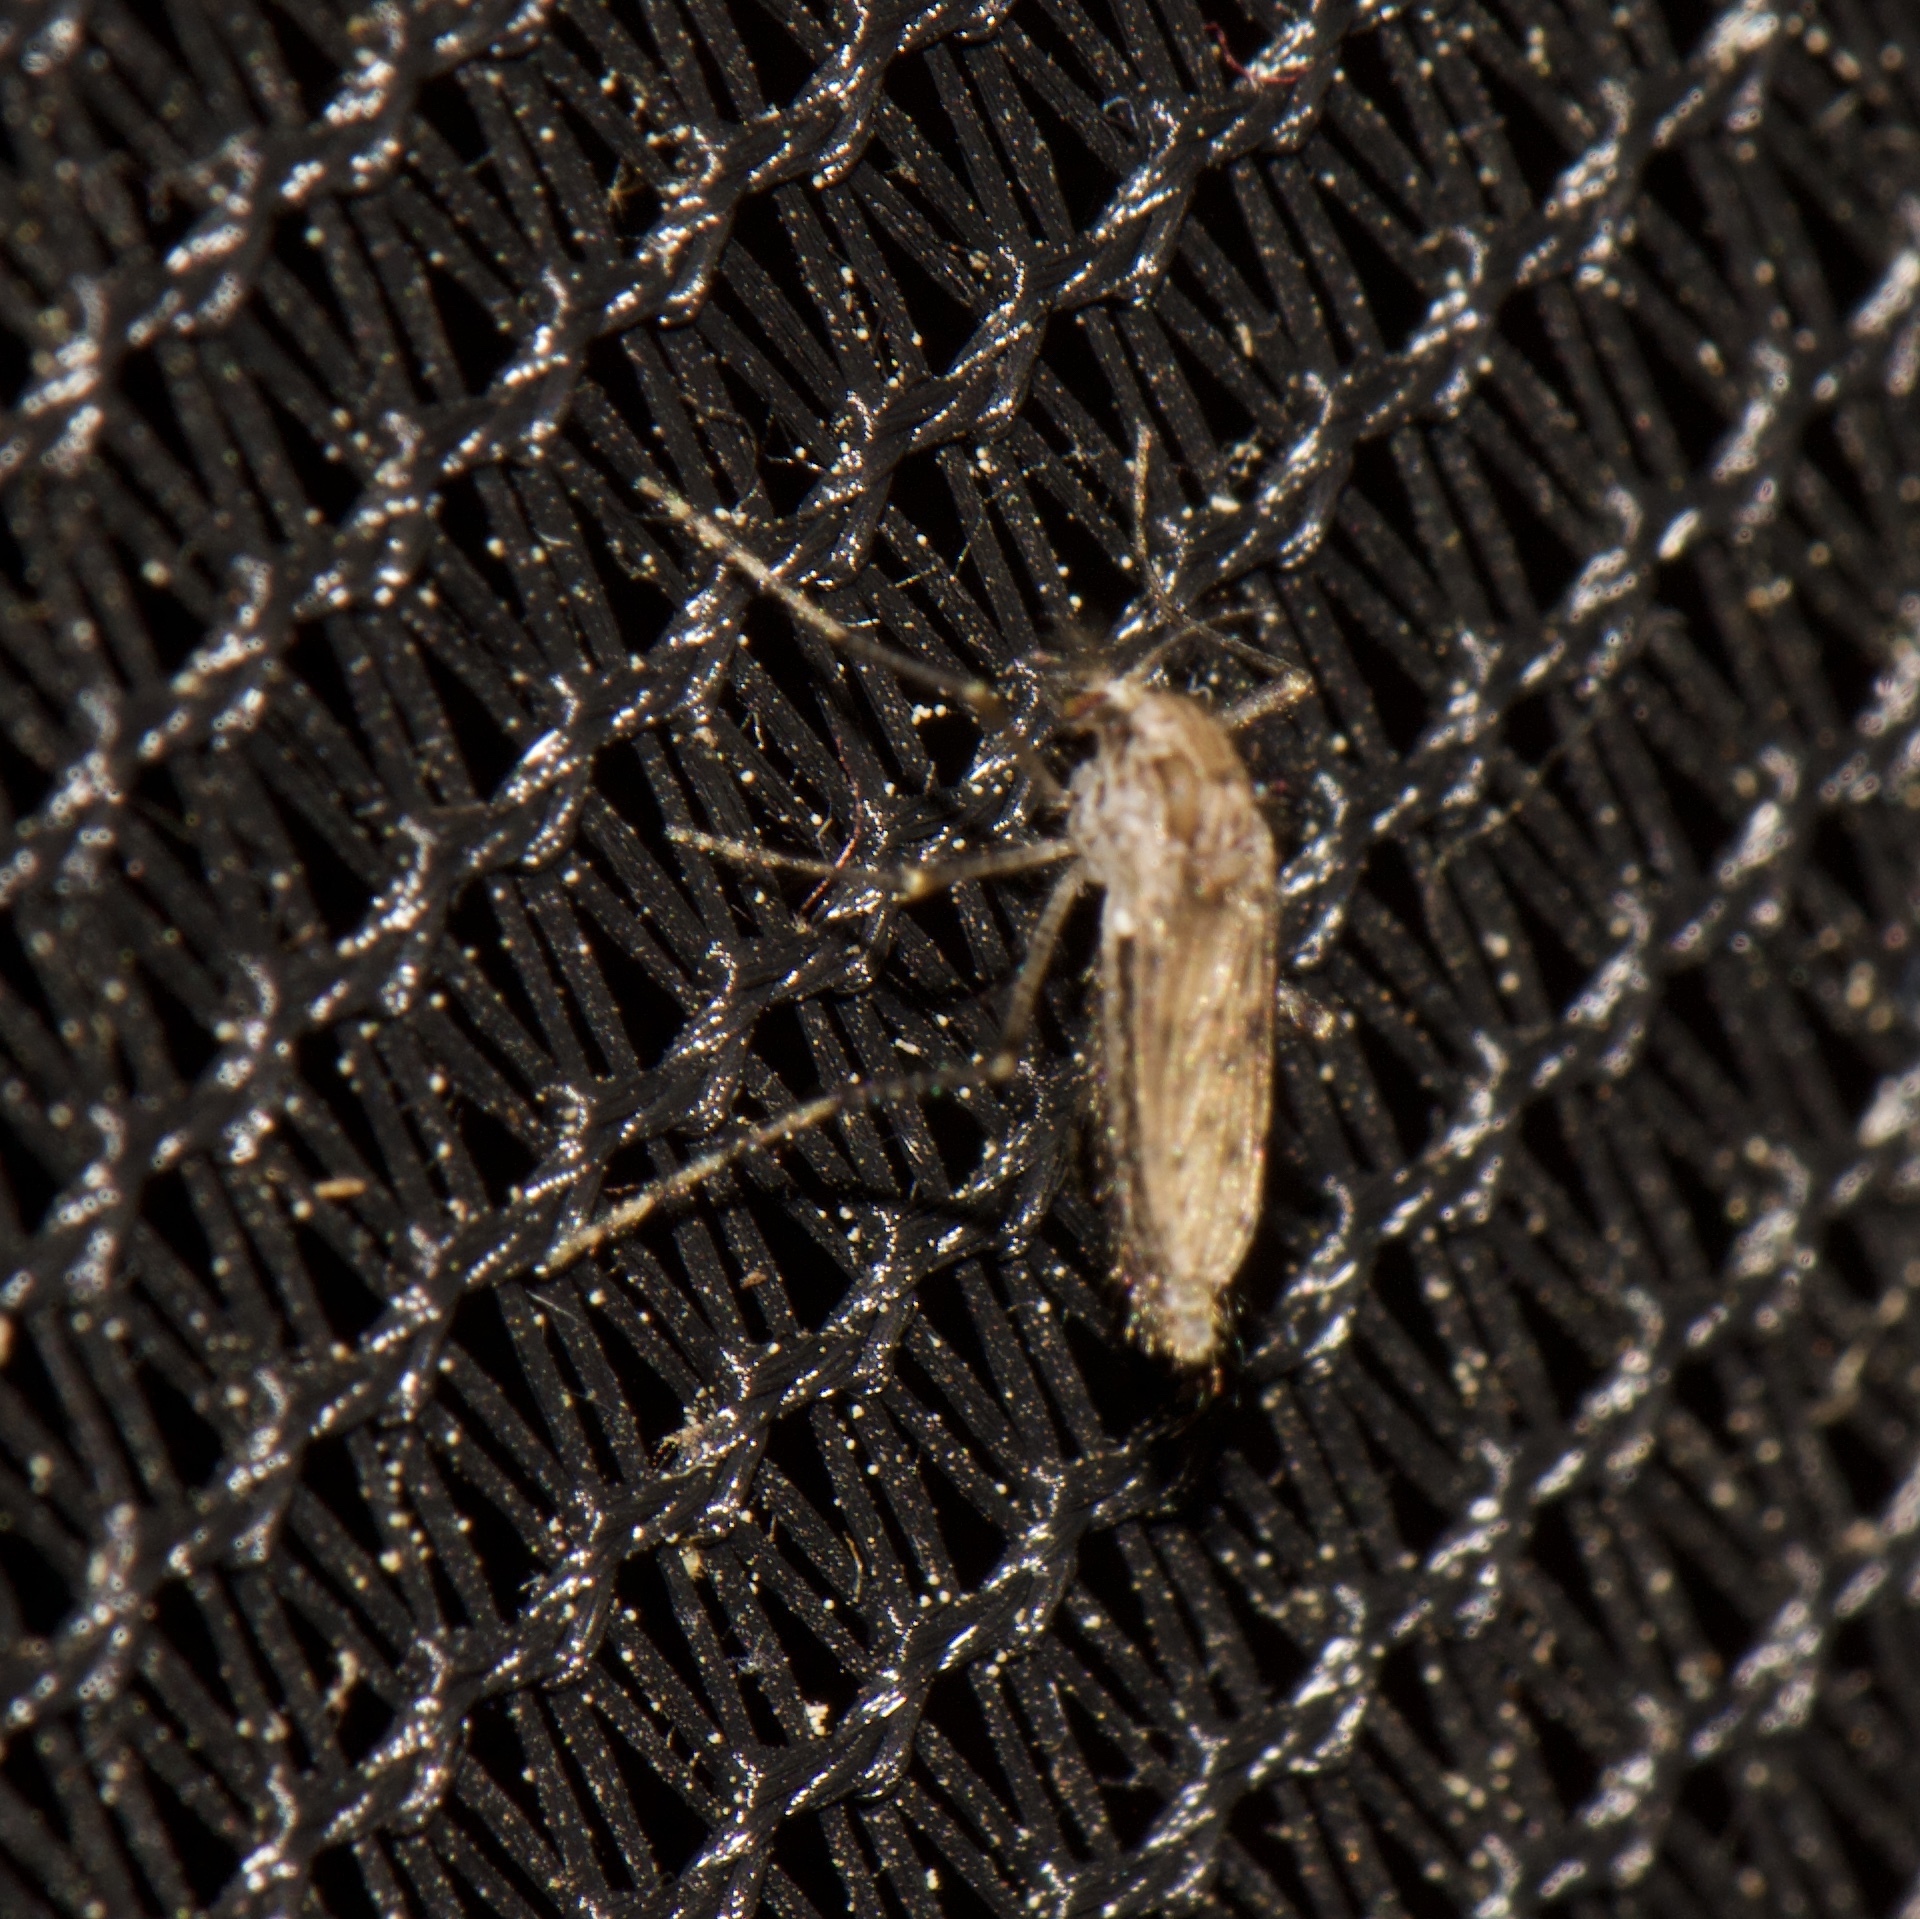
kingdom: Animalia
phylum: Arthropoda
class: Insecta
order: Diptera
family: Chaoboridae
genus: Chaoborus
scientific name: Chaoborus punctipennis
